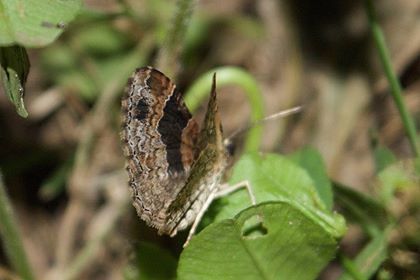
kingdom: Animalia
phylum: Arthropoda
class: Insecta
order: Lepidoptera
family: Geometridae
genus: Xanthorhoe
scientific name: Xanthorhoe ferrugata
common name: Dark-barred twin-spot carpet
